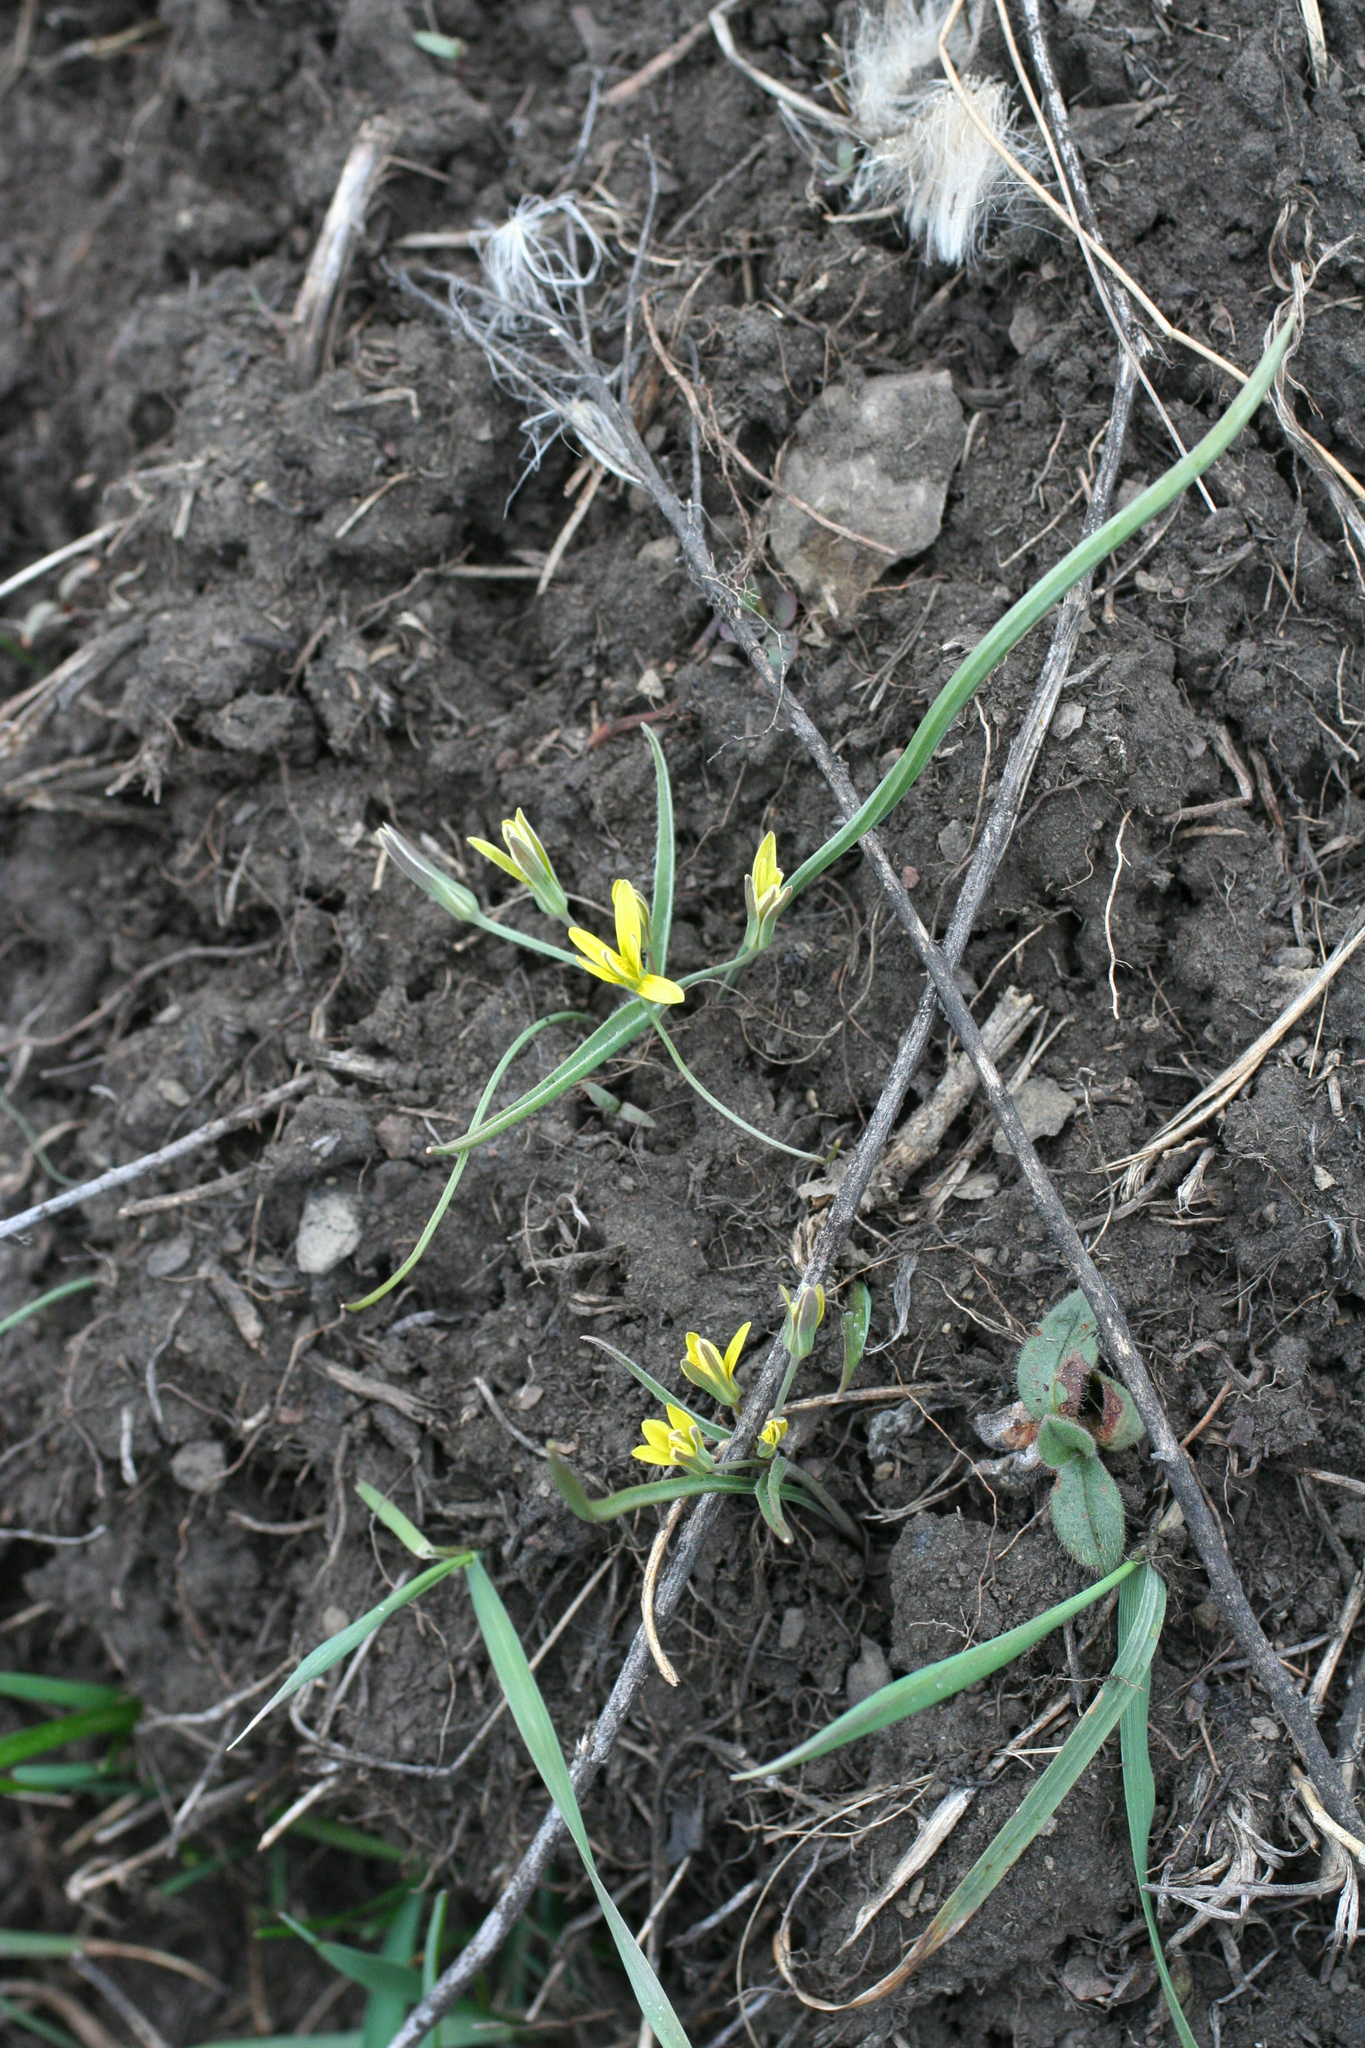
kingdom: Plantae
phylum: Tracheophyta
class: Liliopsida
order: Liliales
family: Liliaceae
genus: Gagea
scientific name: Gagea fedtschenkoana
